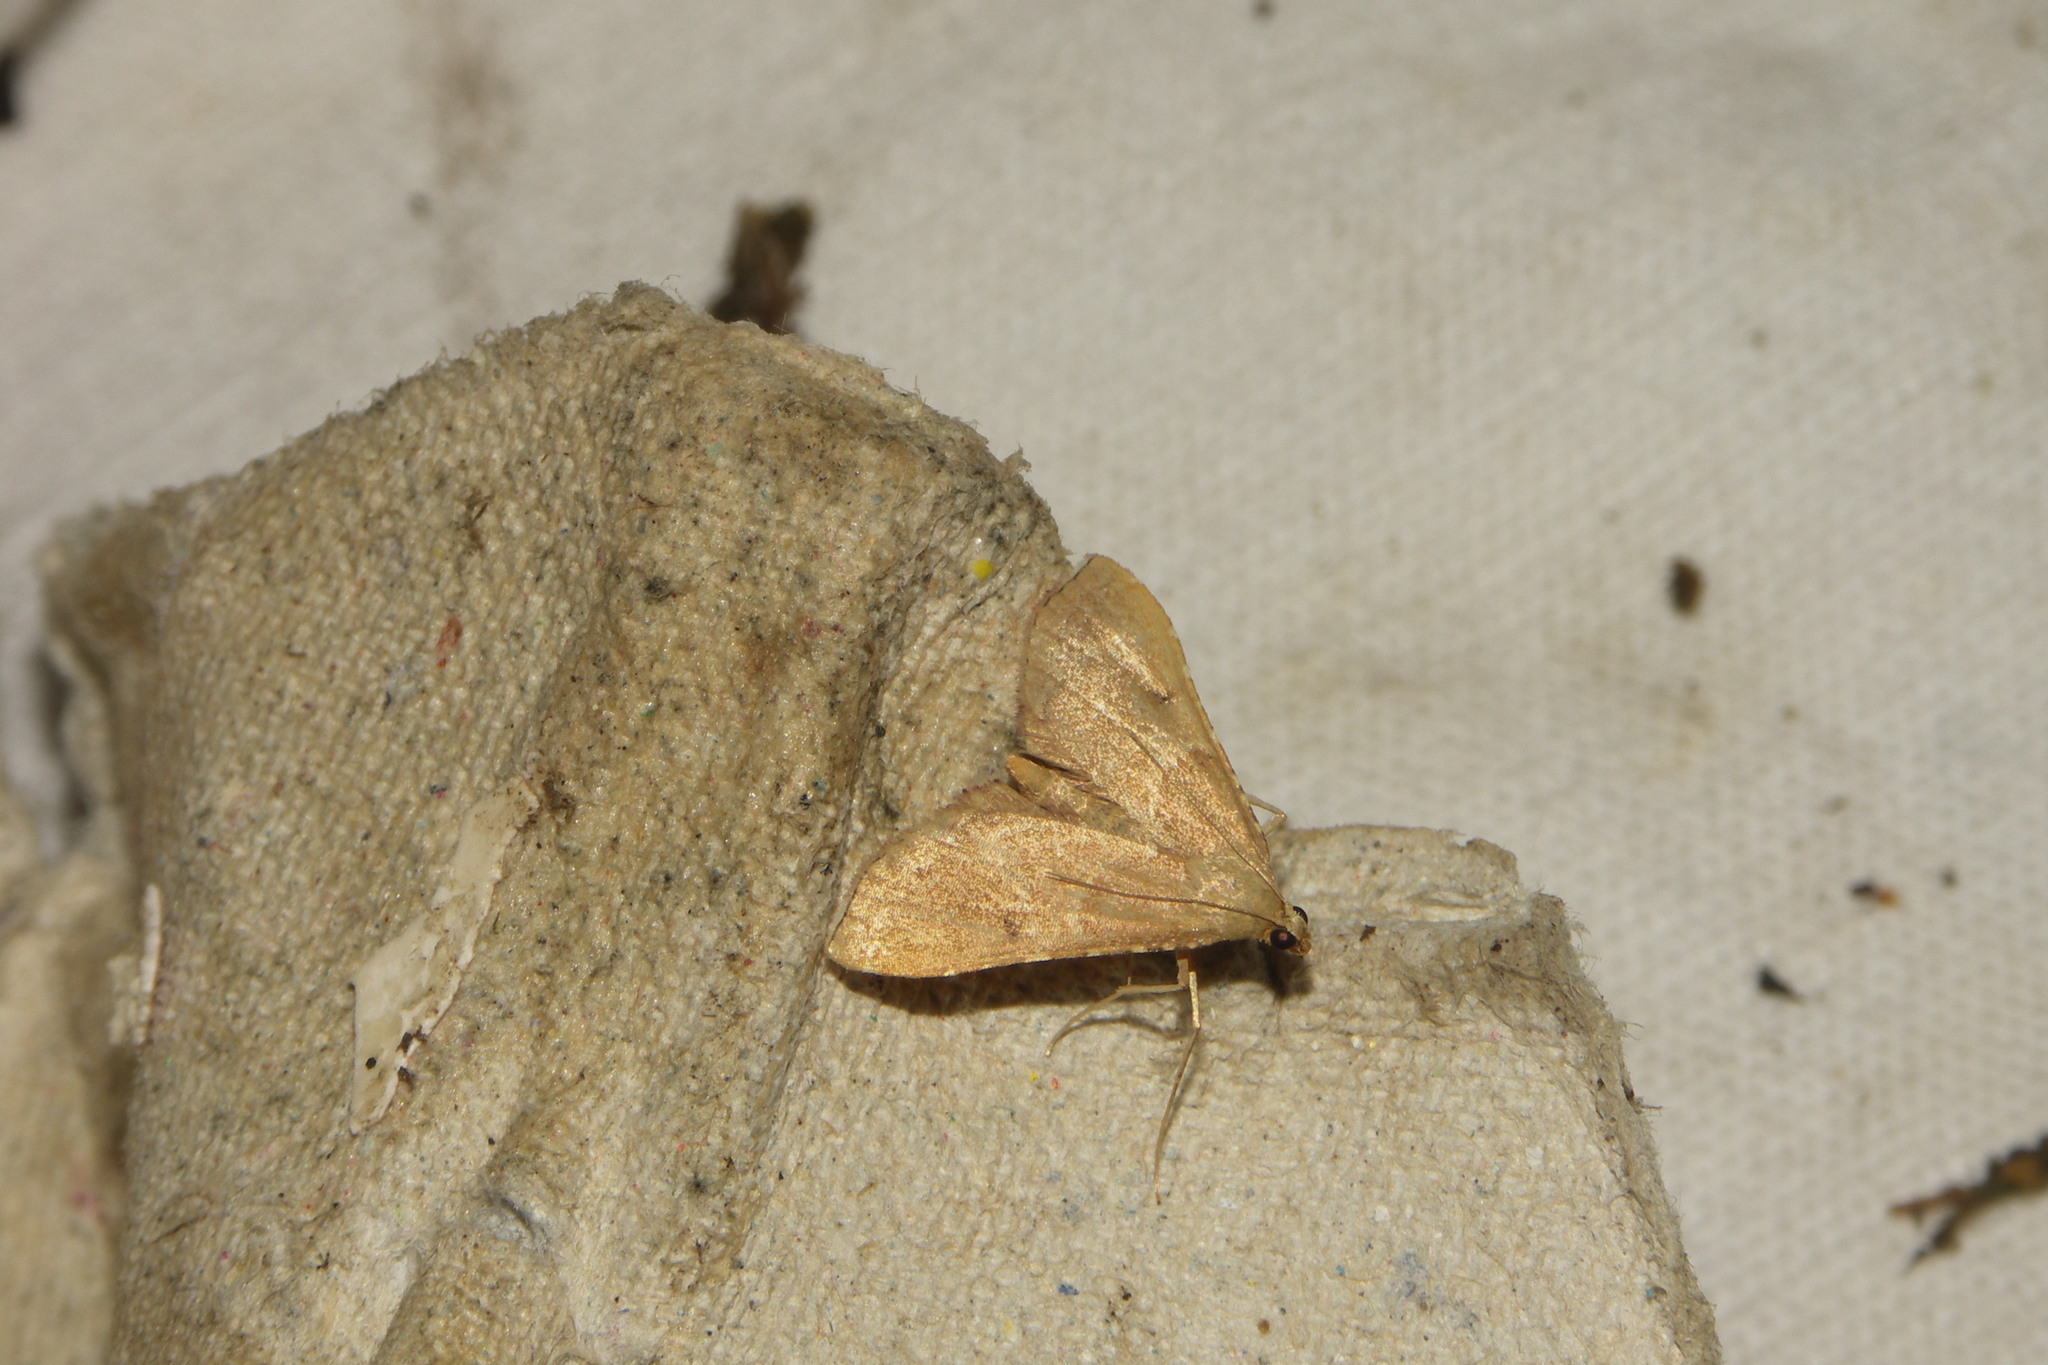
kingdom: Animalia
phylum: Arthropoda
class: Insecta
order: Lepidoptera
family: Pyralidae
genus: Endotricha
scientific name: Endotricha flammealis
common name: Rosy tabby
